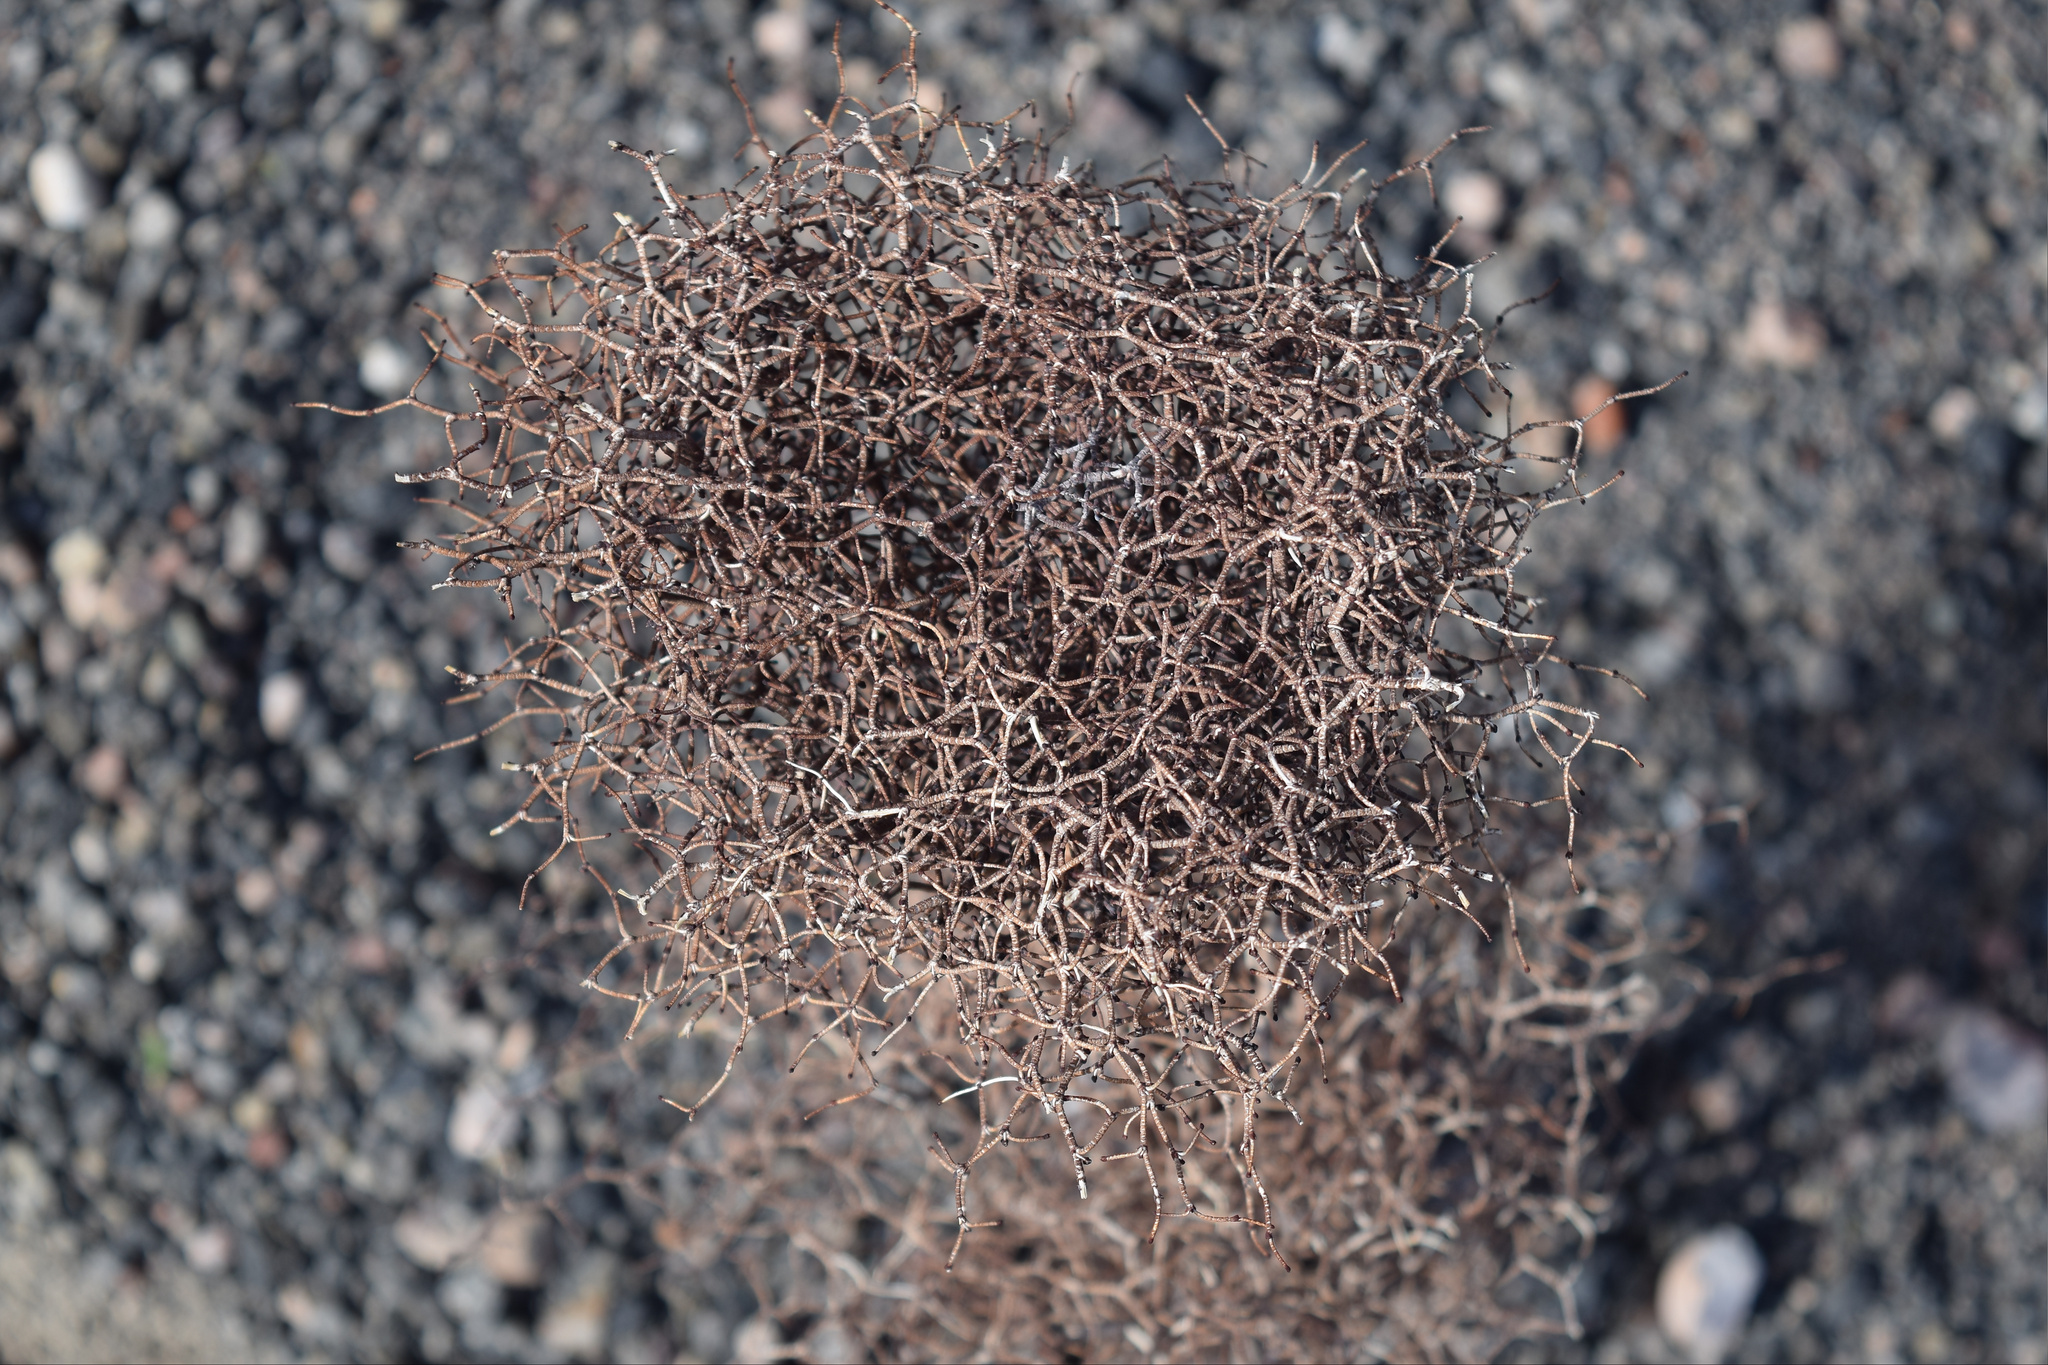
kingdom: Plantae
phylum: Tracheophyta
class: Magnoliopsida
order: Caryophyllales
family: Polygonaceae
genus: Eriogonum
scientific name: Eriogonum rixfordii
